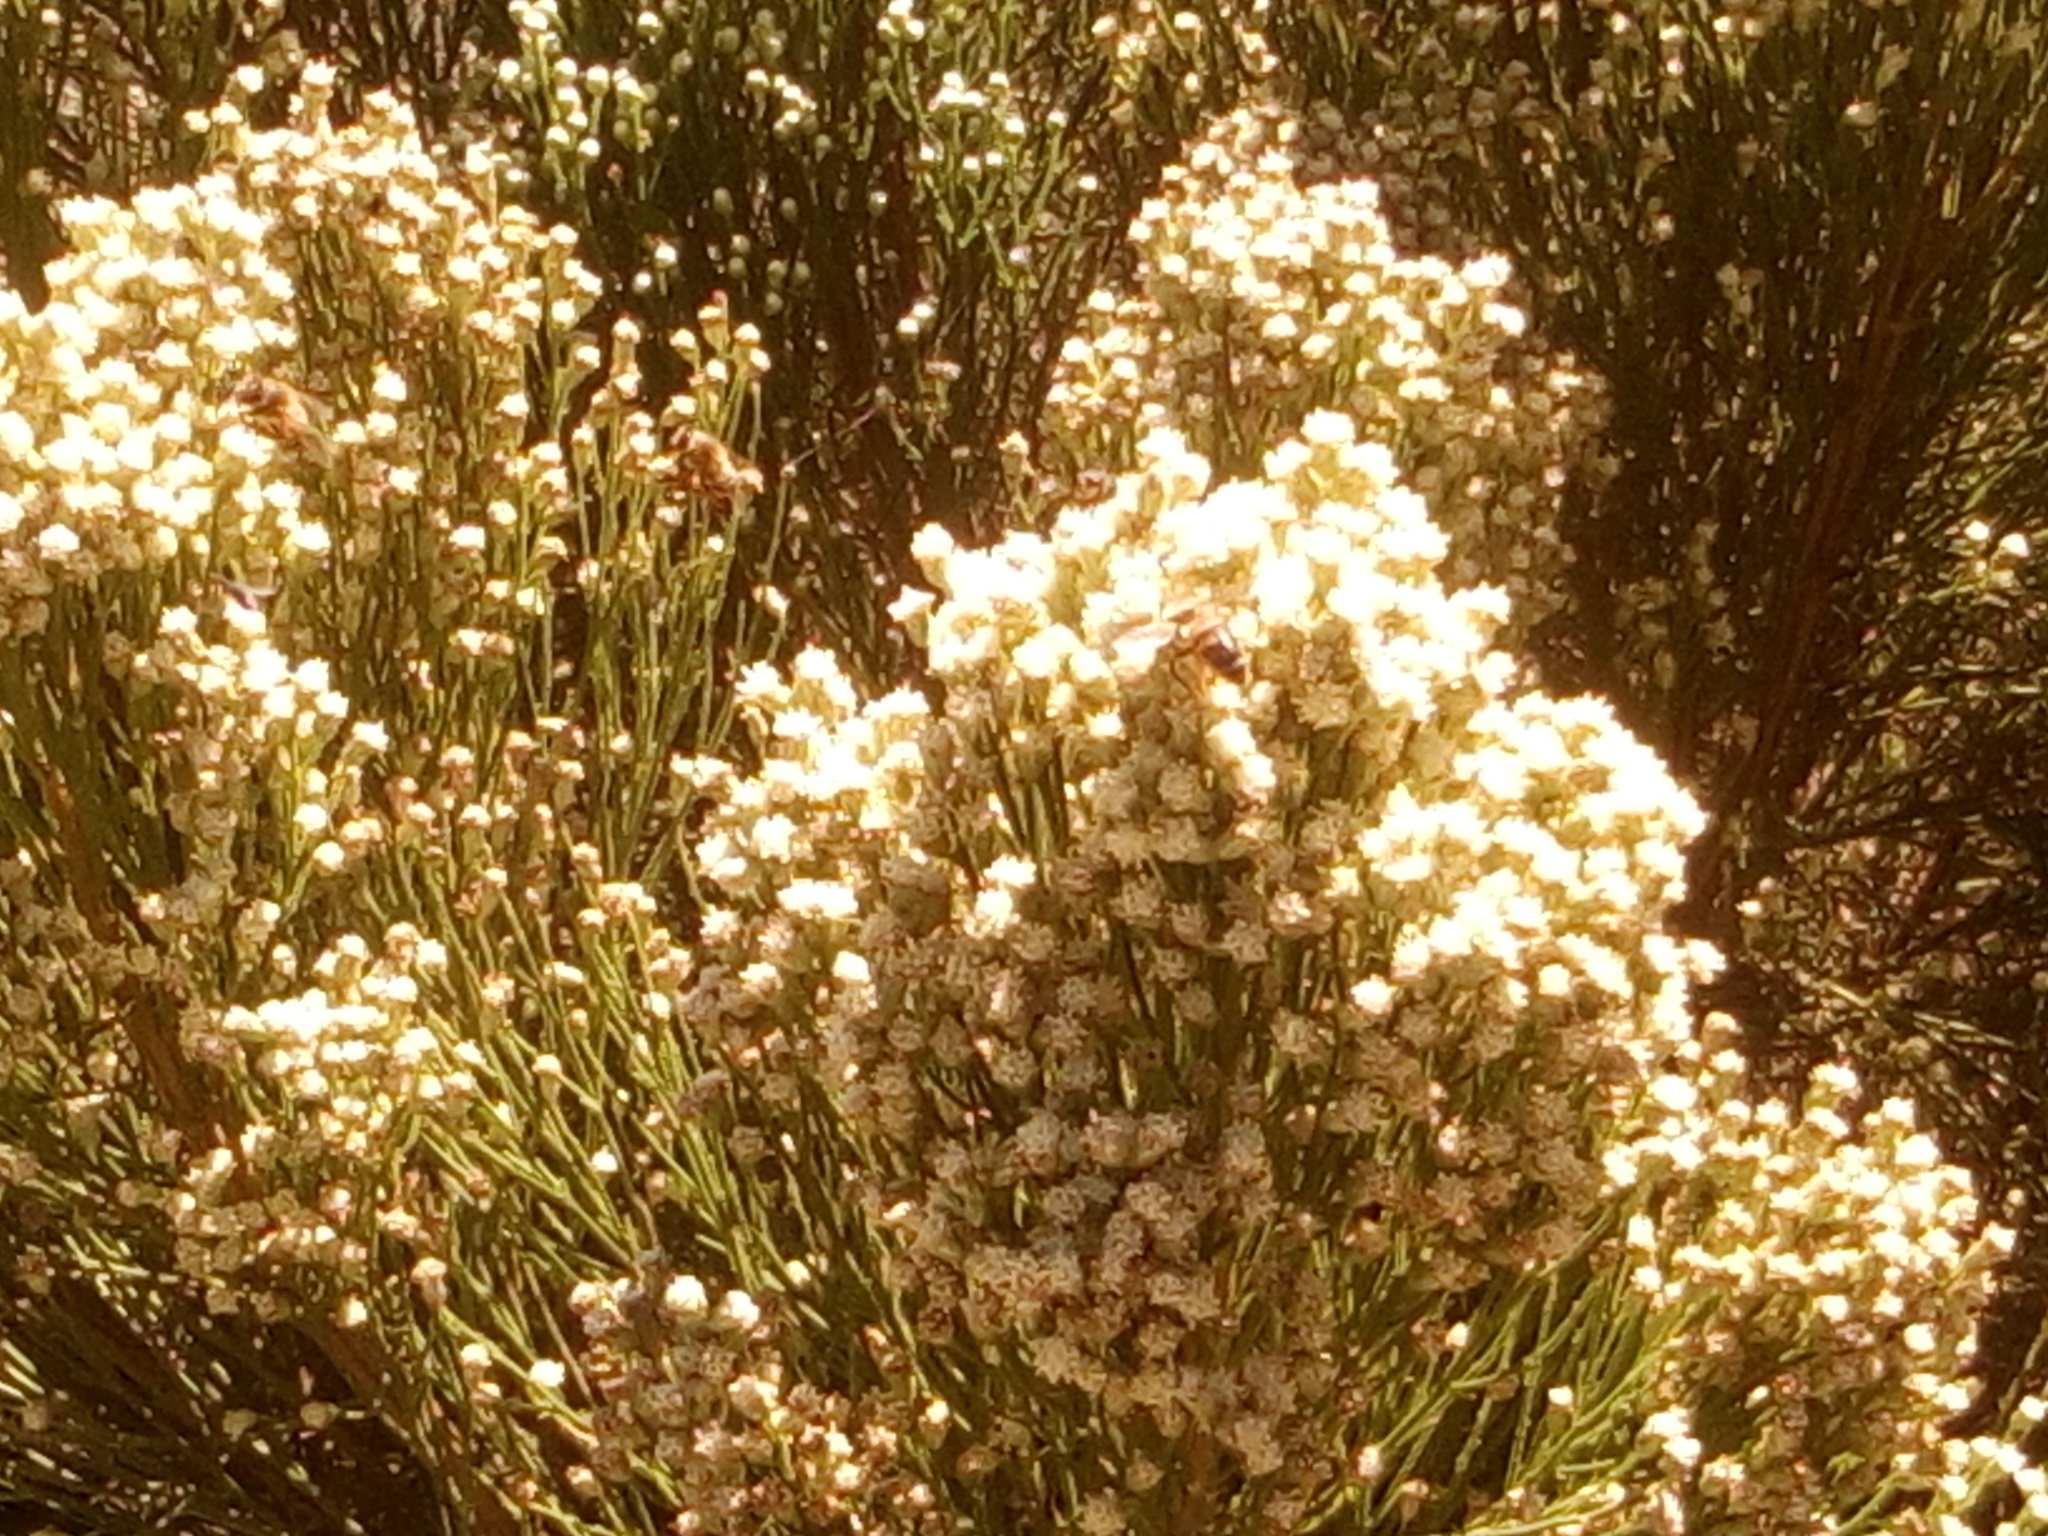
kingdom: Animalia
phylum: Arthropoda
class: Insecta
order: Hymenoptera
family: Apidae
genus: Apis
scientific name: Apis mellifera
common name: Honey bee
